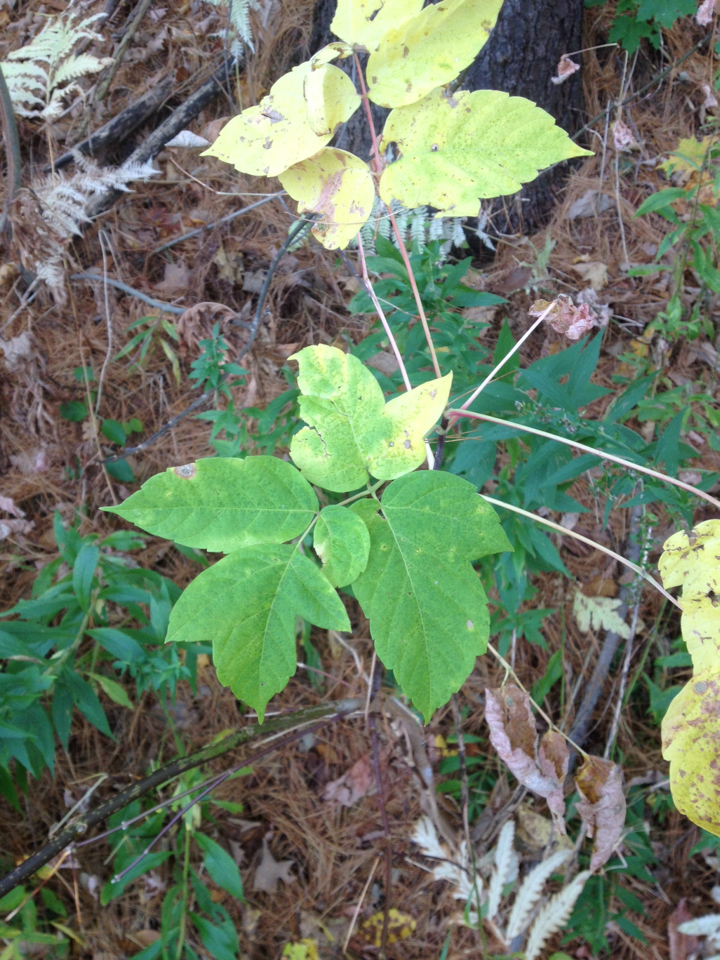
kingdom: Plantae
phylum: Tracheophyta
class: Magnoliopsida
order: Sapindales
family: Sapindaceae
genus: Acer
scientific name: Acer negundo
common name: Ashleaf maple
